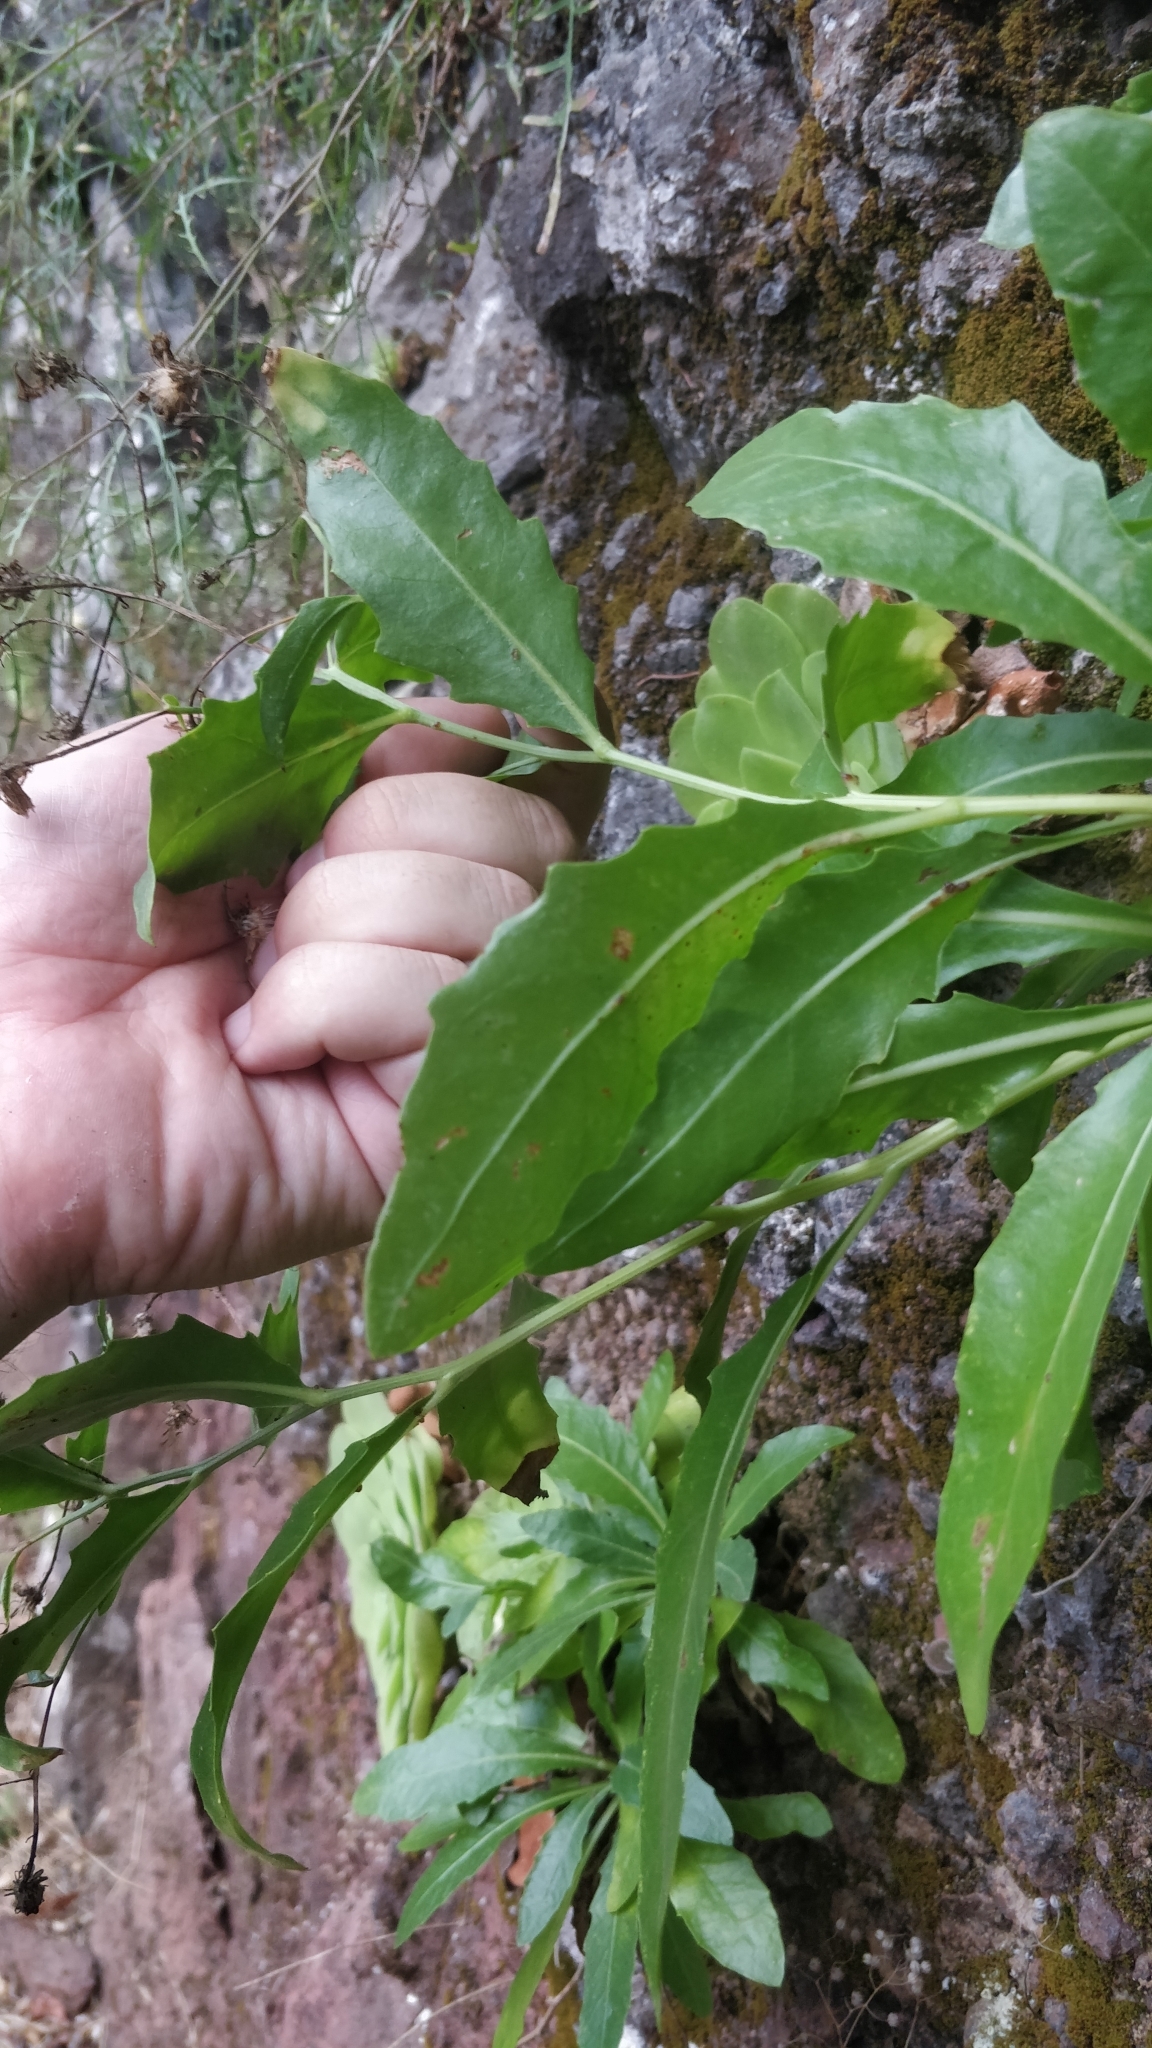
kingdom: Plantae
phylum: Tracheophyta
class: Magnoliopsida
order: Asterales
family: Asteraceae
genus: Tolpis
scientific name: Tolpis macrorhiza
